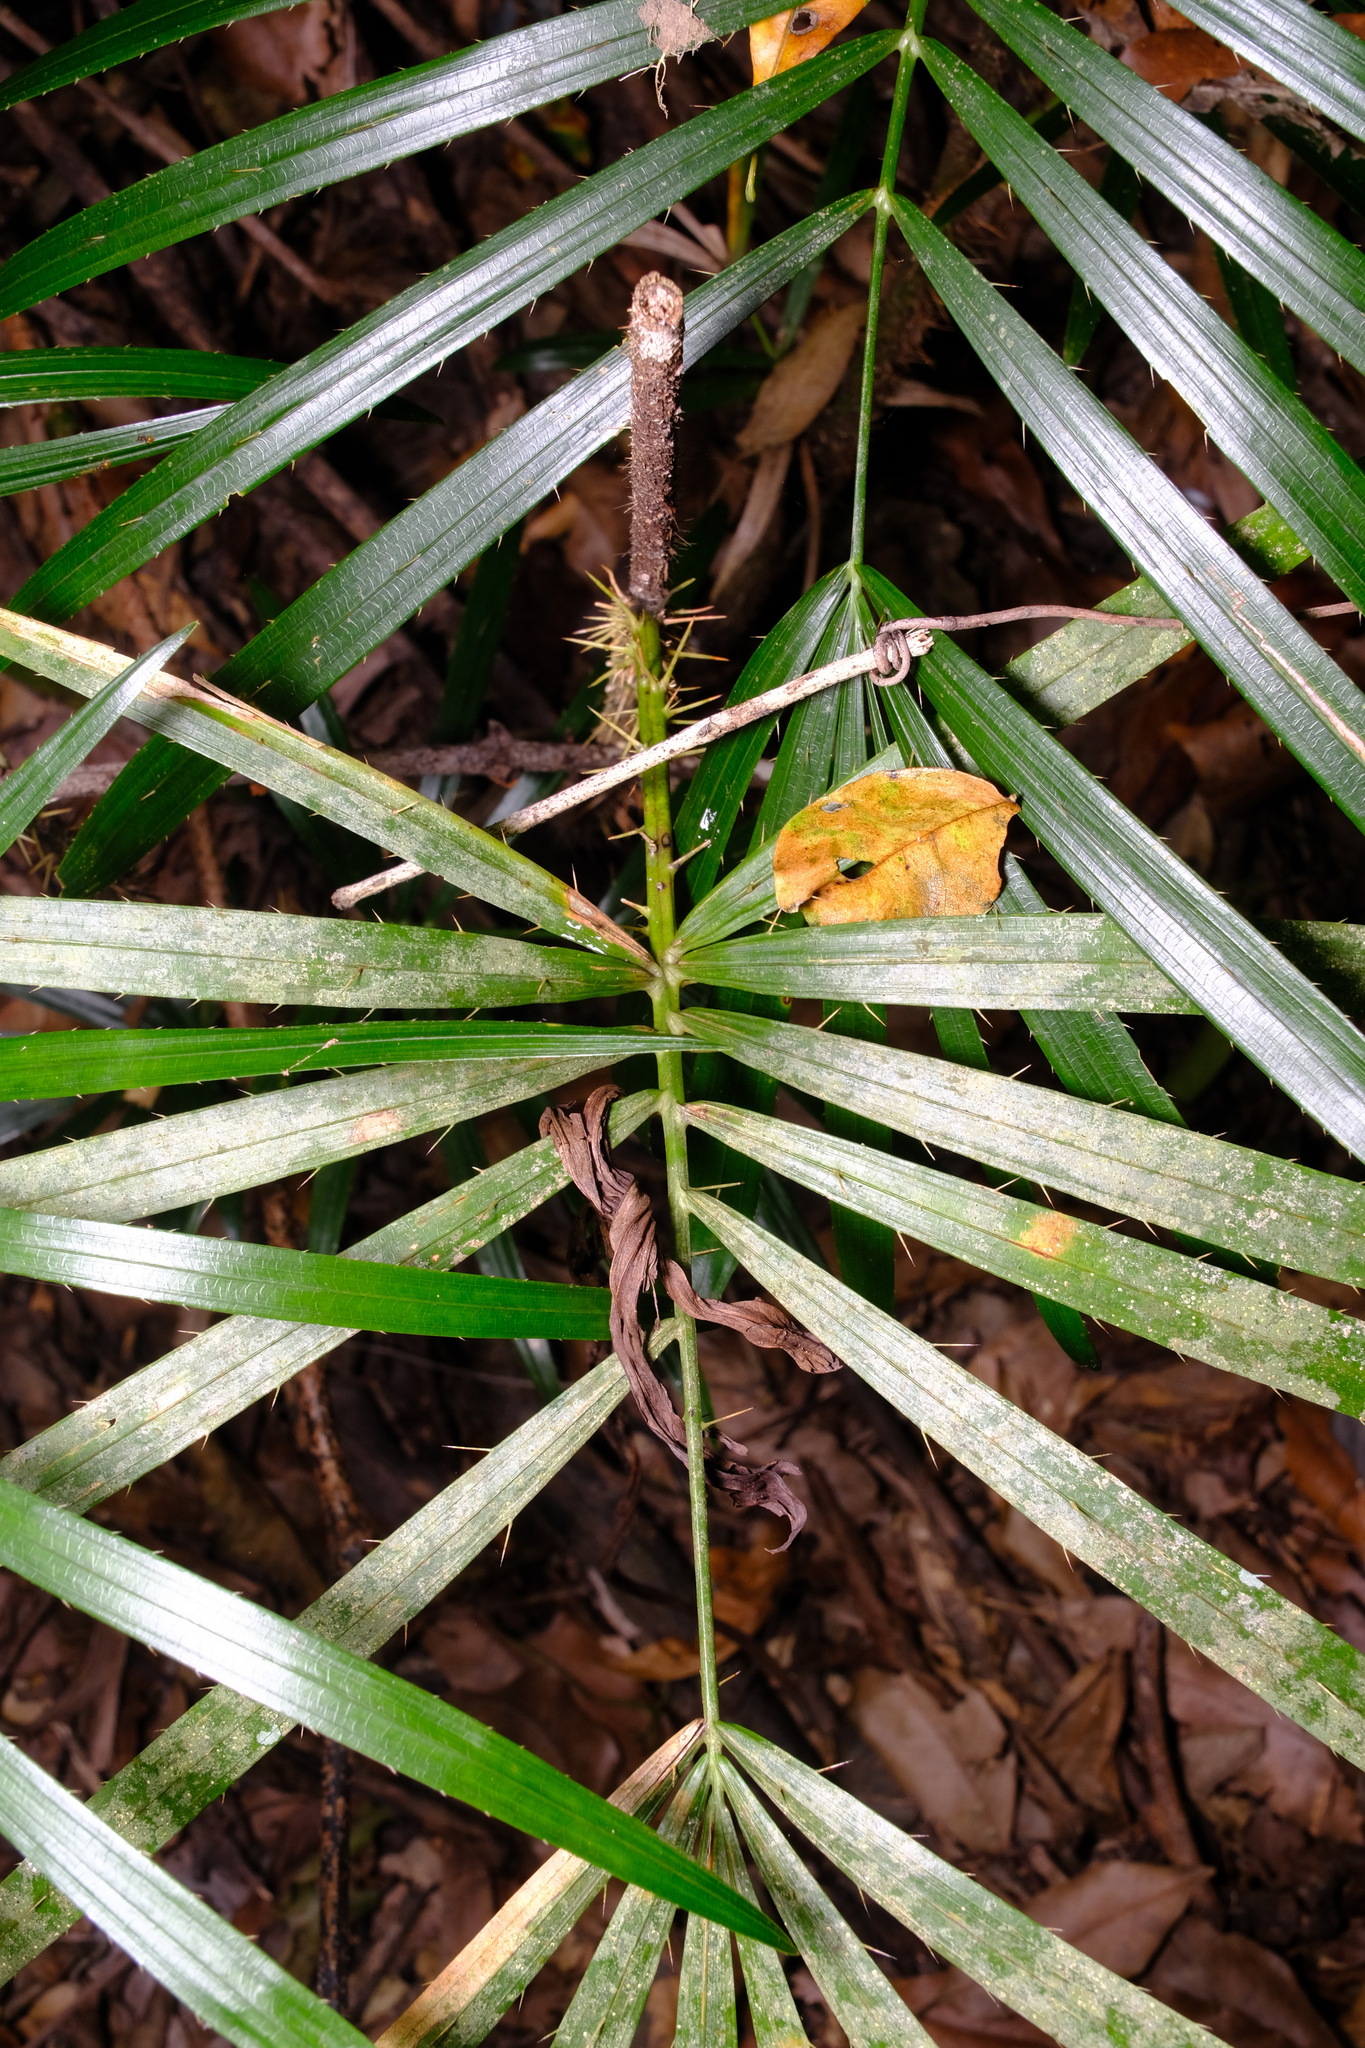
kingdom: Plantae
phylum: Tracheophyta
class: Liliopsida
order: Arecales
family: Arecaceae
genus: Calamus
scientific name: Calamus muelleri
